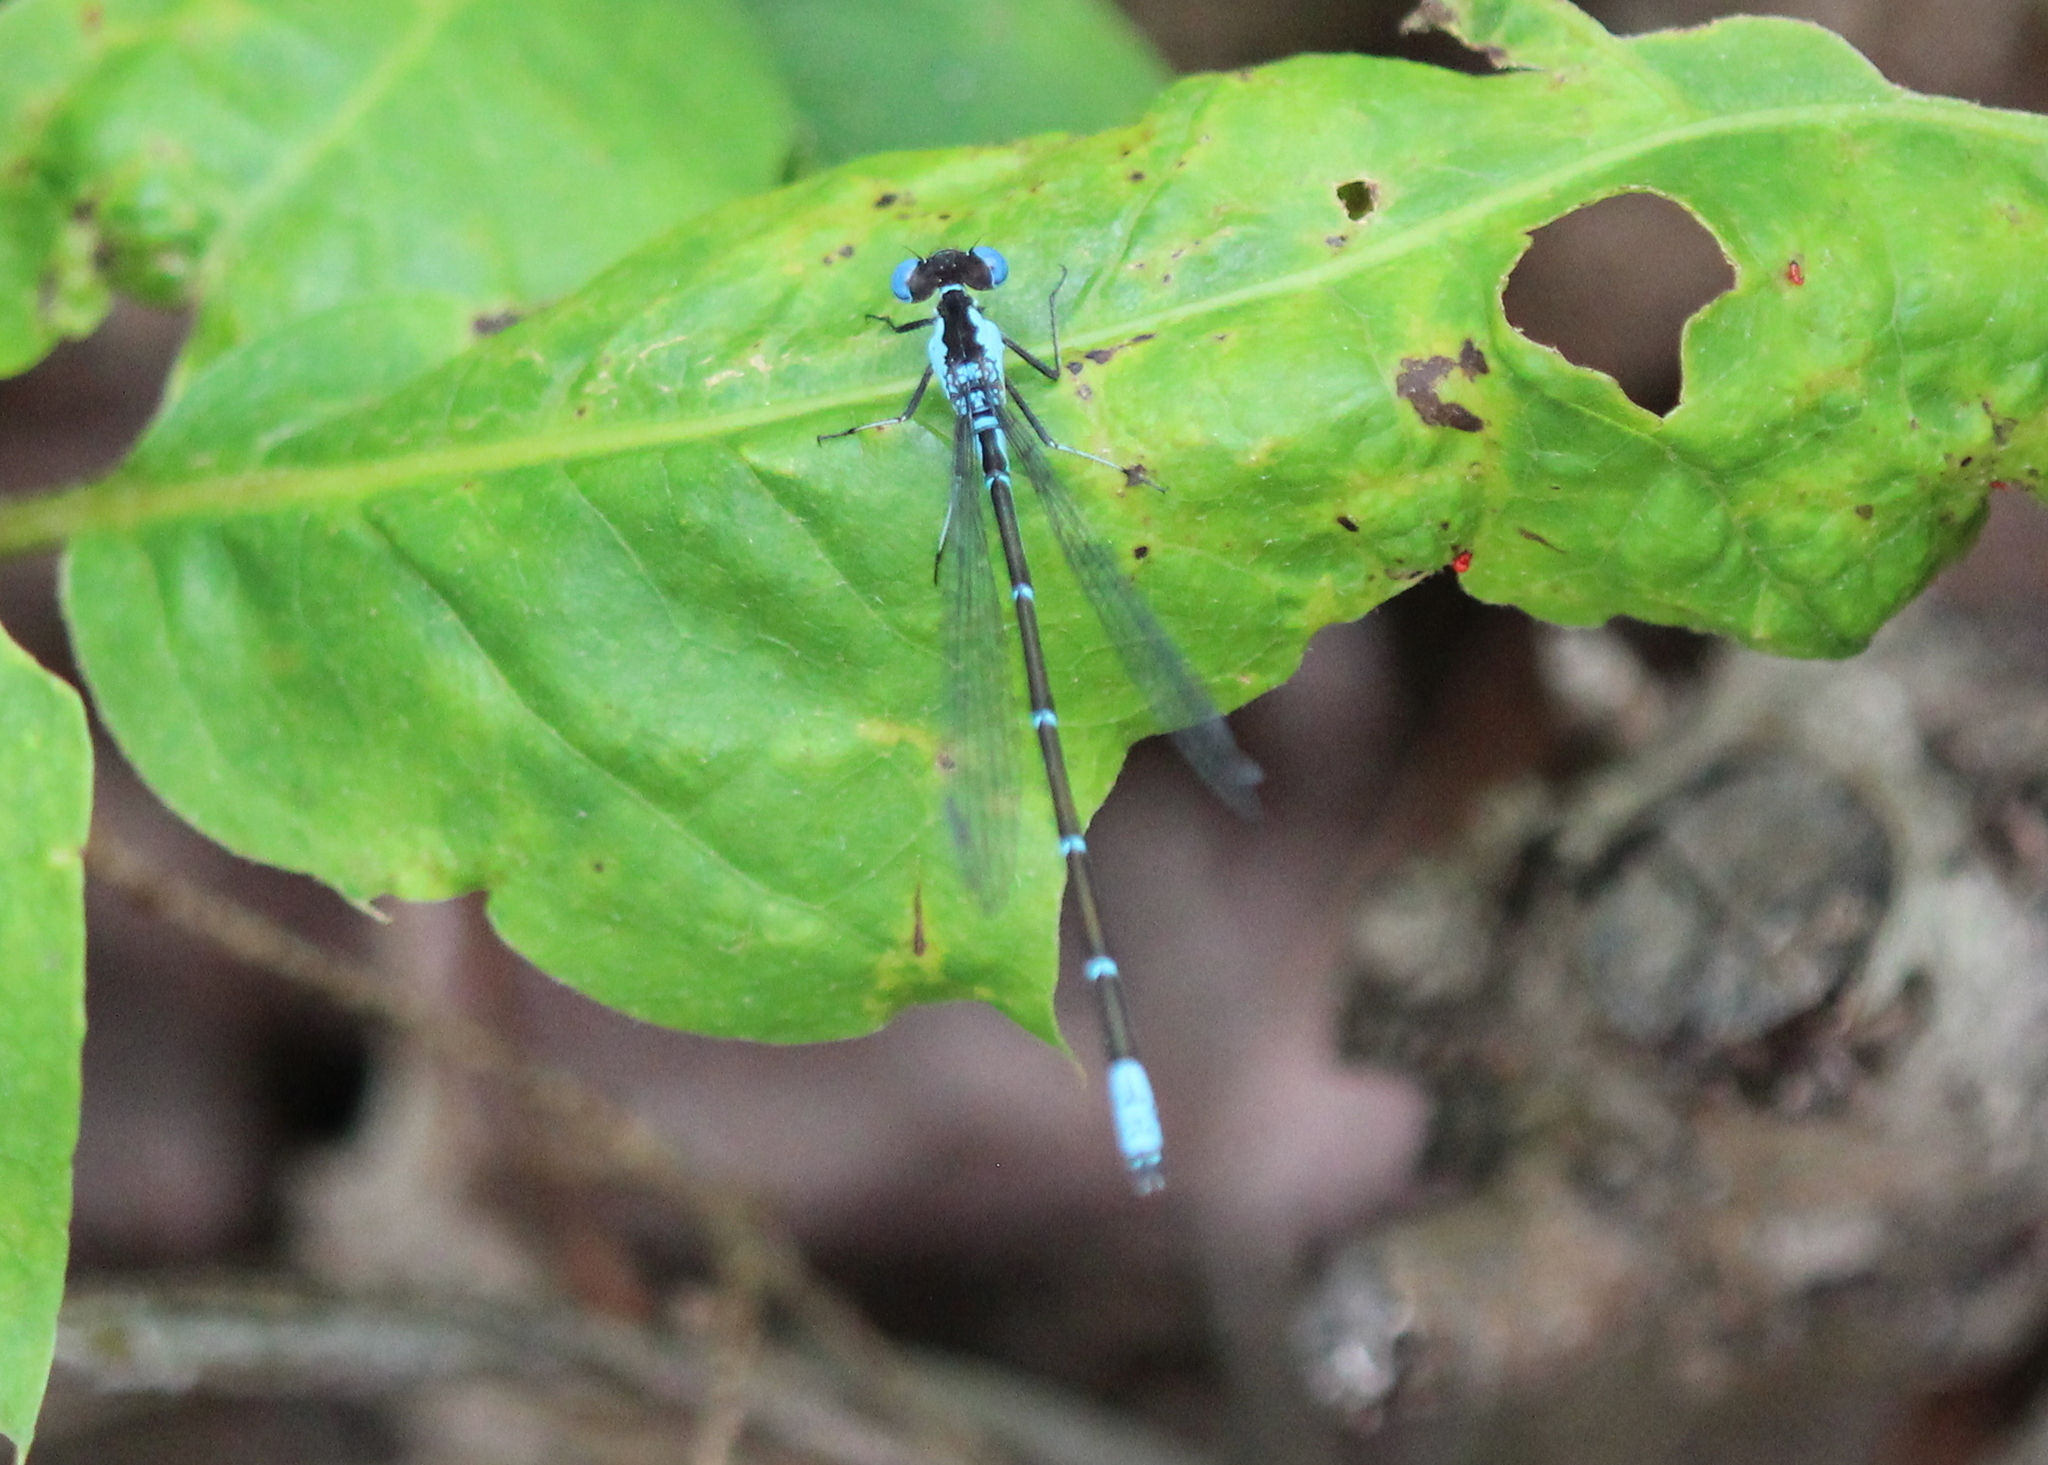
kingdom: Animalia
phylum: Arthropoda
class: Insecta
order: Odonata
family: Coenagrionidae
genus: Chromagrion
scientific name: Chromagrion conditum
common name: Aurora damsel
